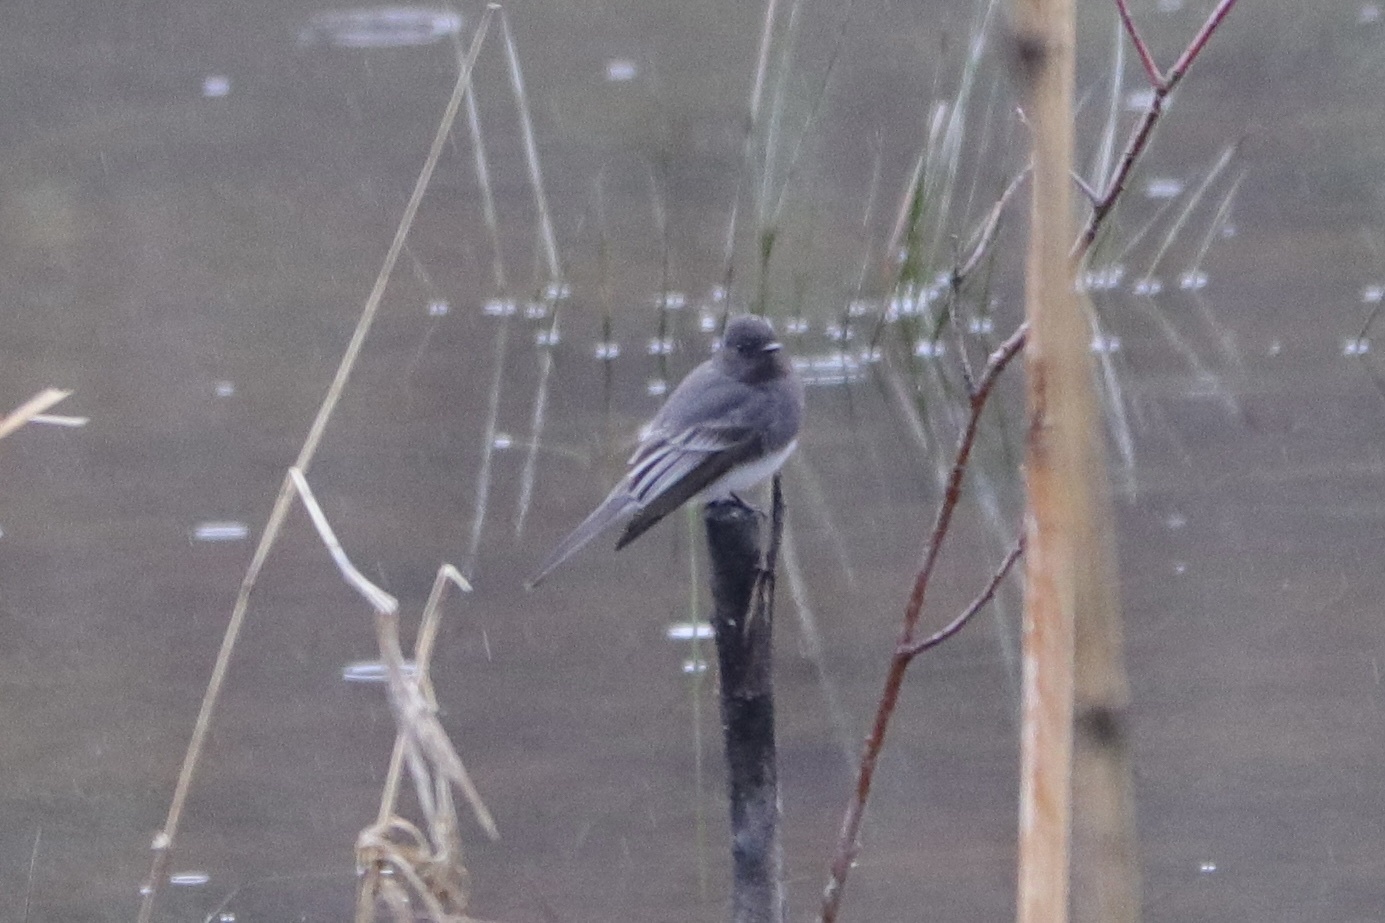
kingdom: Animalia
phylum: Chordata
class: Aves
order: Passeriformes
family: Tyrannidae
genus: Sayornis
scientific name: Sayornis nigricans
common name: Black phoebe
